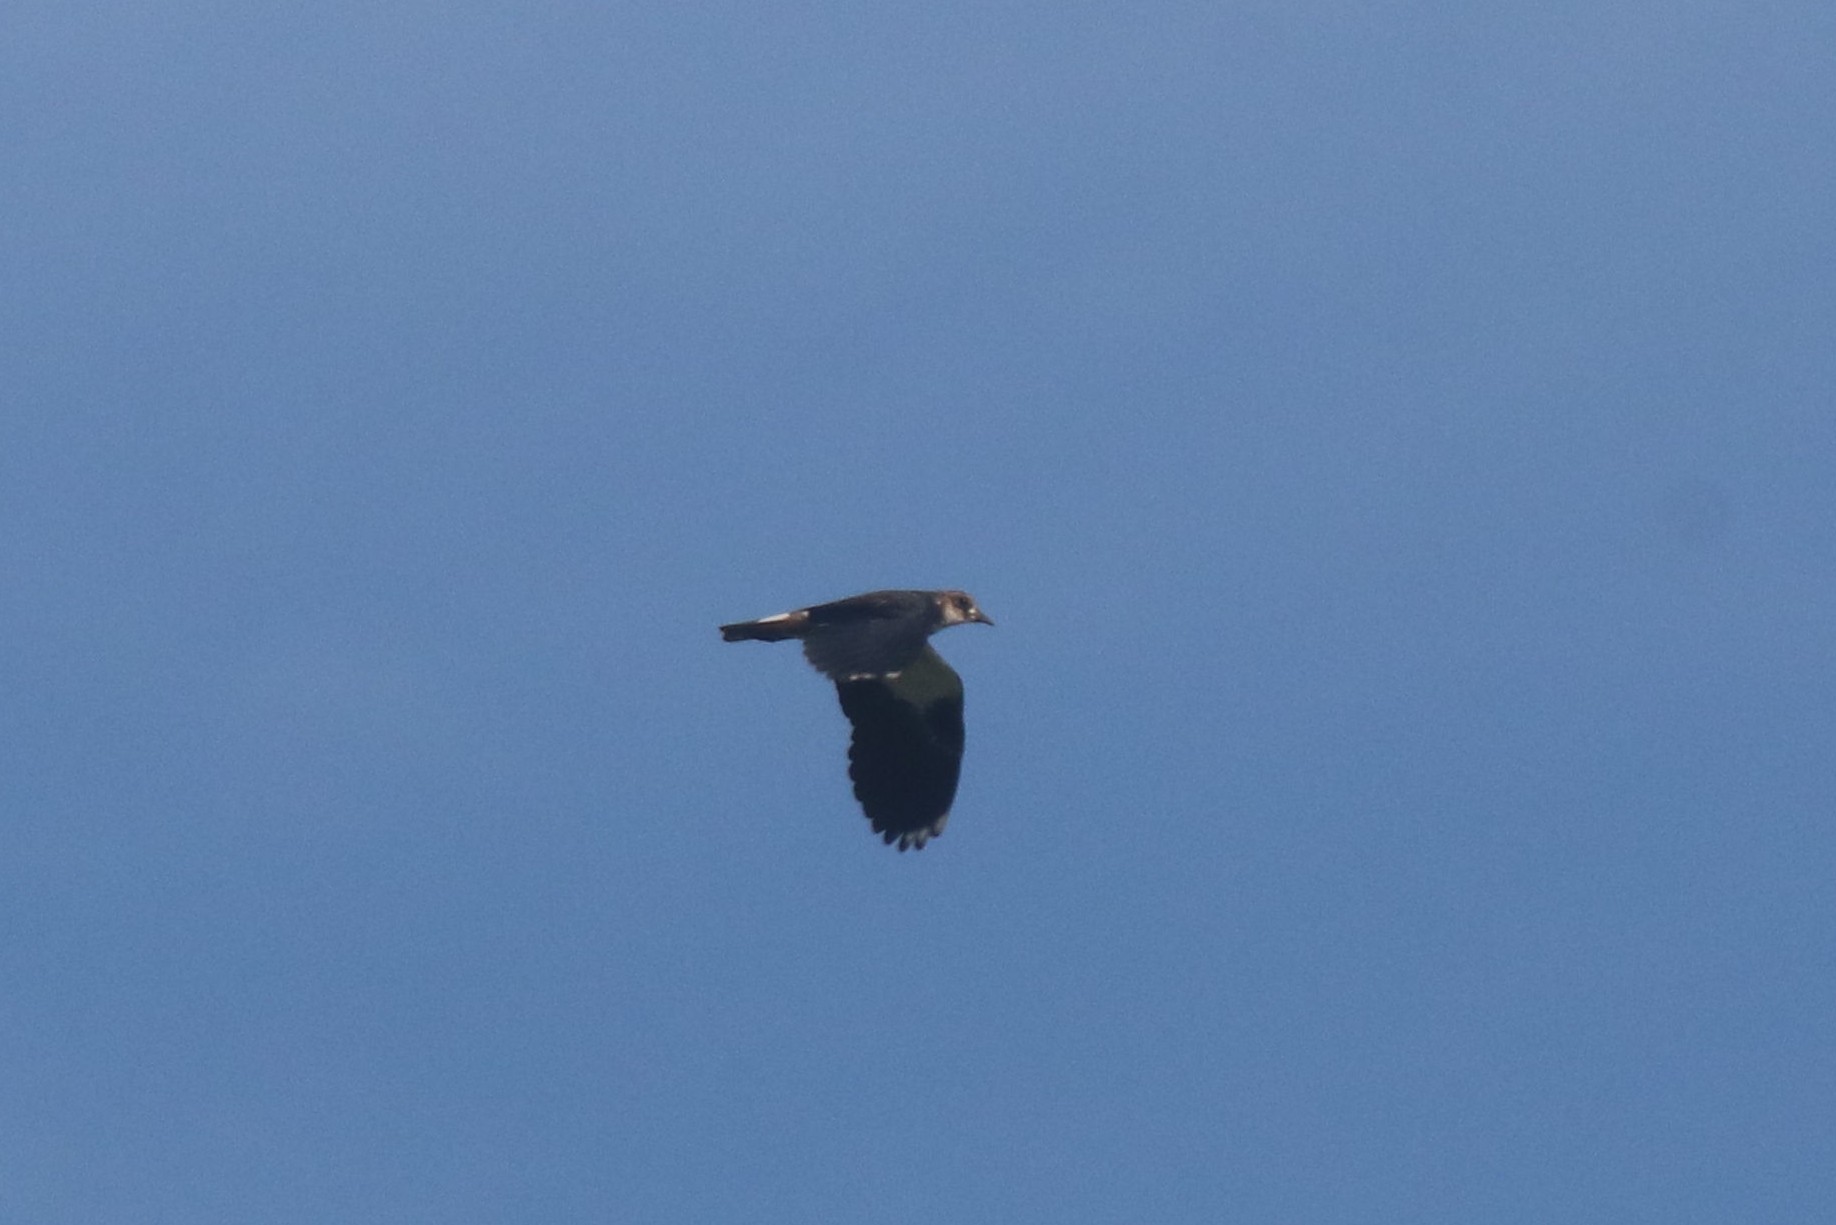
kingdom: Animalia
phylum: Chordata
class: Aves
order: Charadriiformes
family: Charadriidae
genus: Vanellus
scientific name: Vanellus vanellus
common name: Northern lapwing
